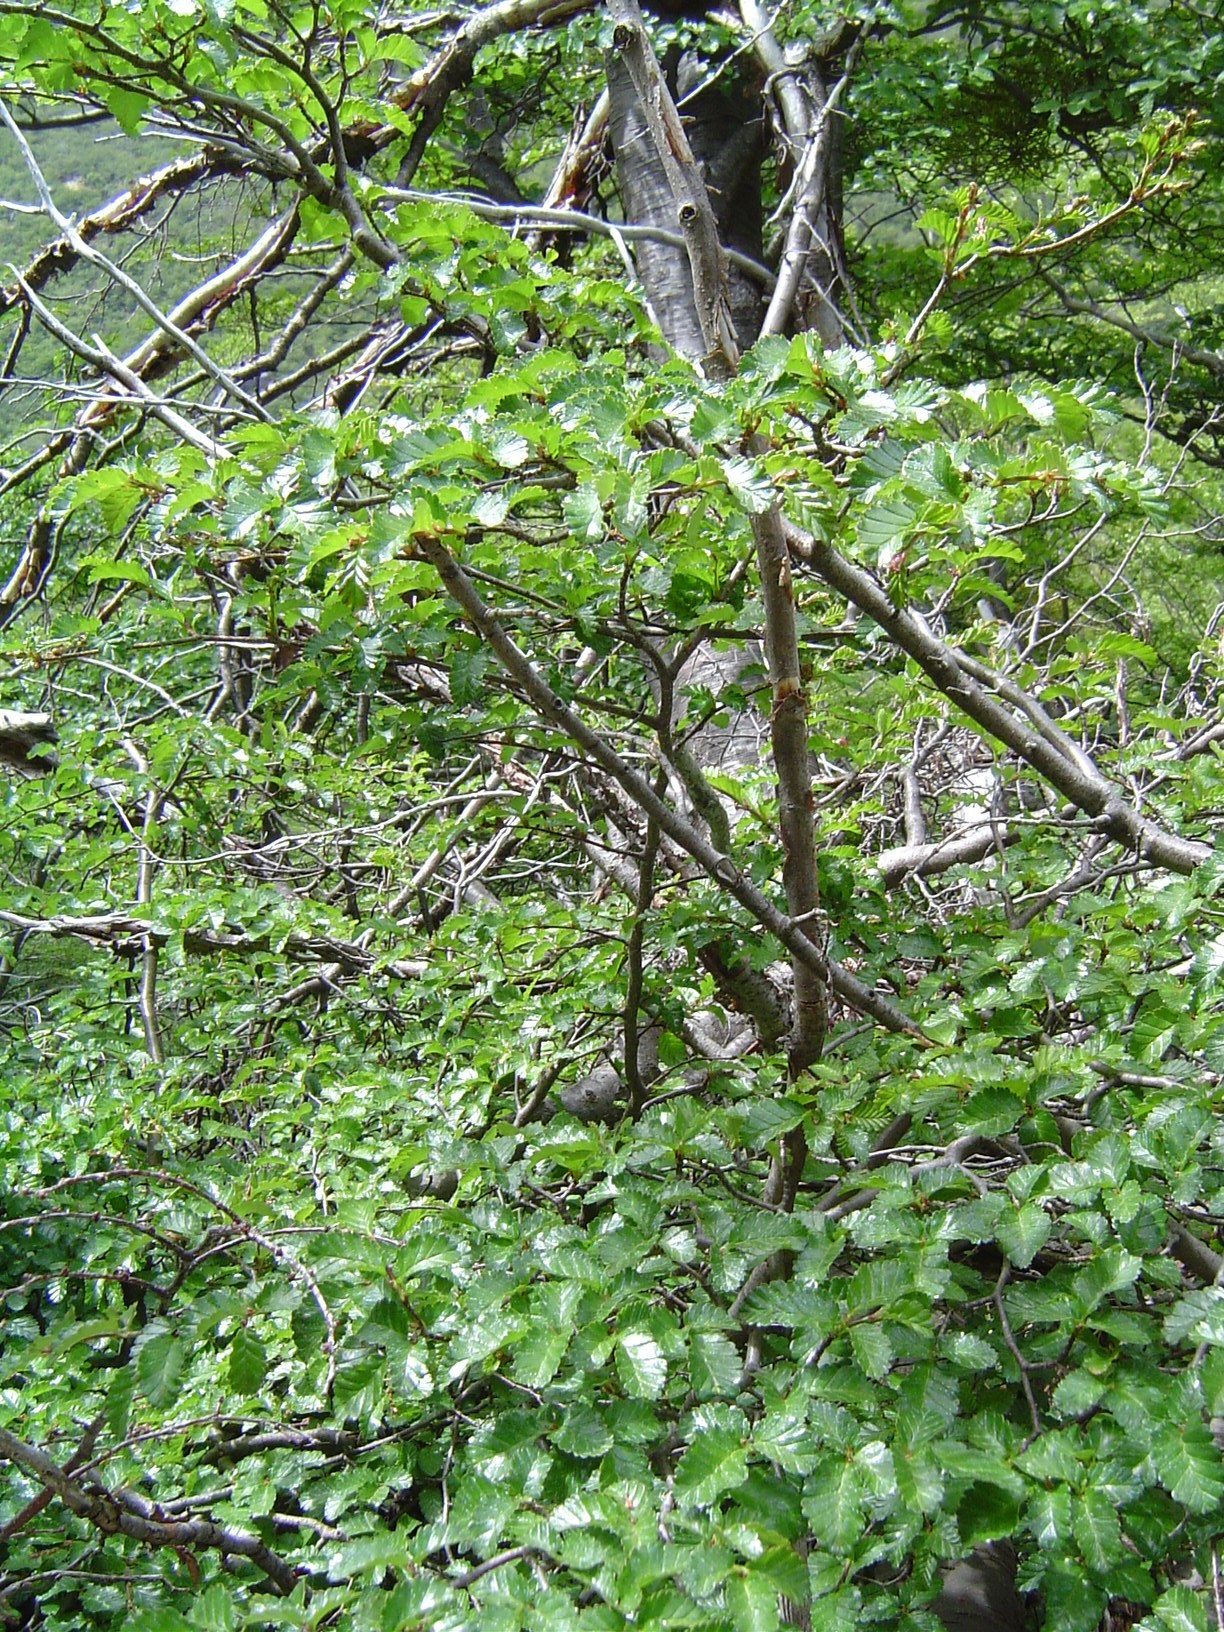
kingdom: Plantae
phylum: Tracheophyta
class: Magnoliopsida
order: Fagales
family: Nothofagaceae
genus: Nothofagus
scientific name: Nothofagus pumilio
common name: Lenga beech
